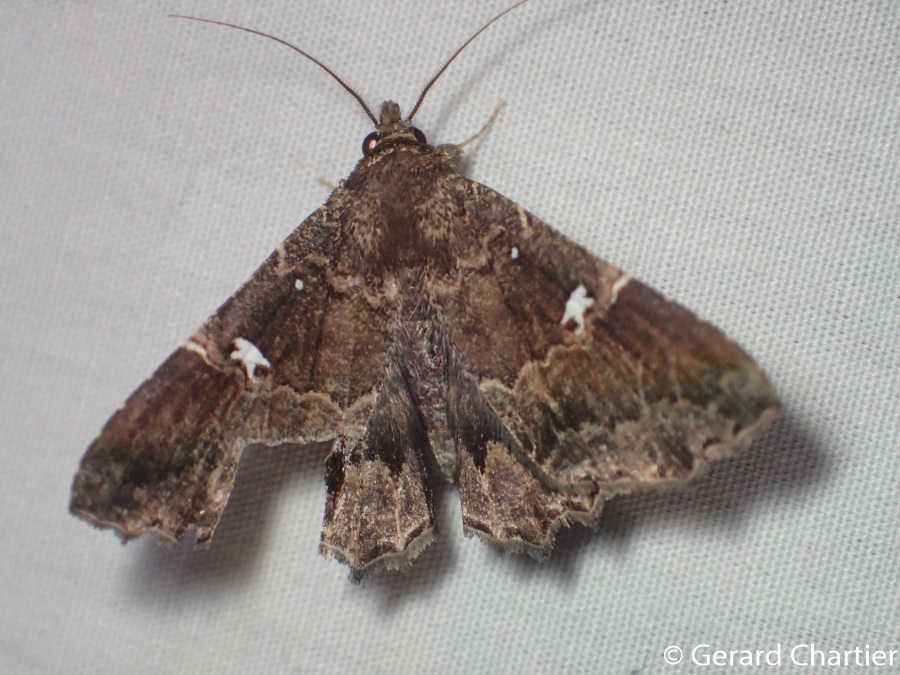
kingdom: Animalia
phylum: Arthropoda
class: Insecta
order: Lepidoptera
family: Erebidae
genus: Vestura
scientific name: Vestura minereusalis
